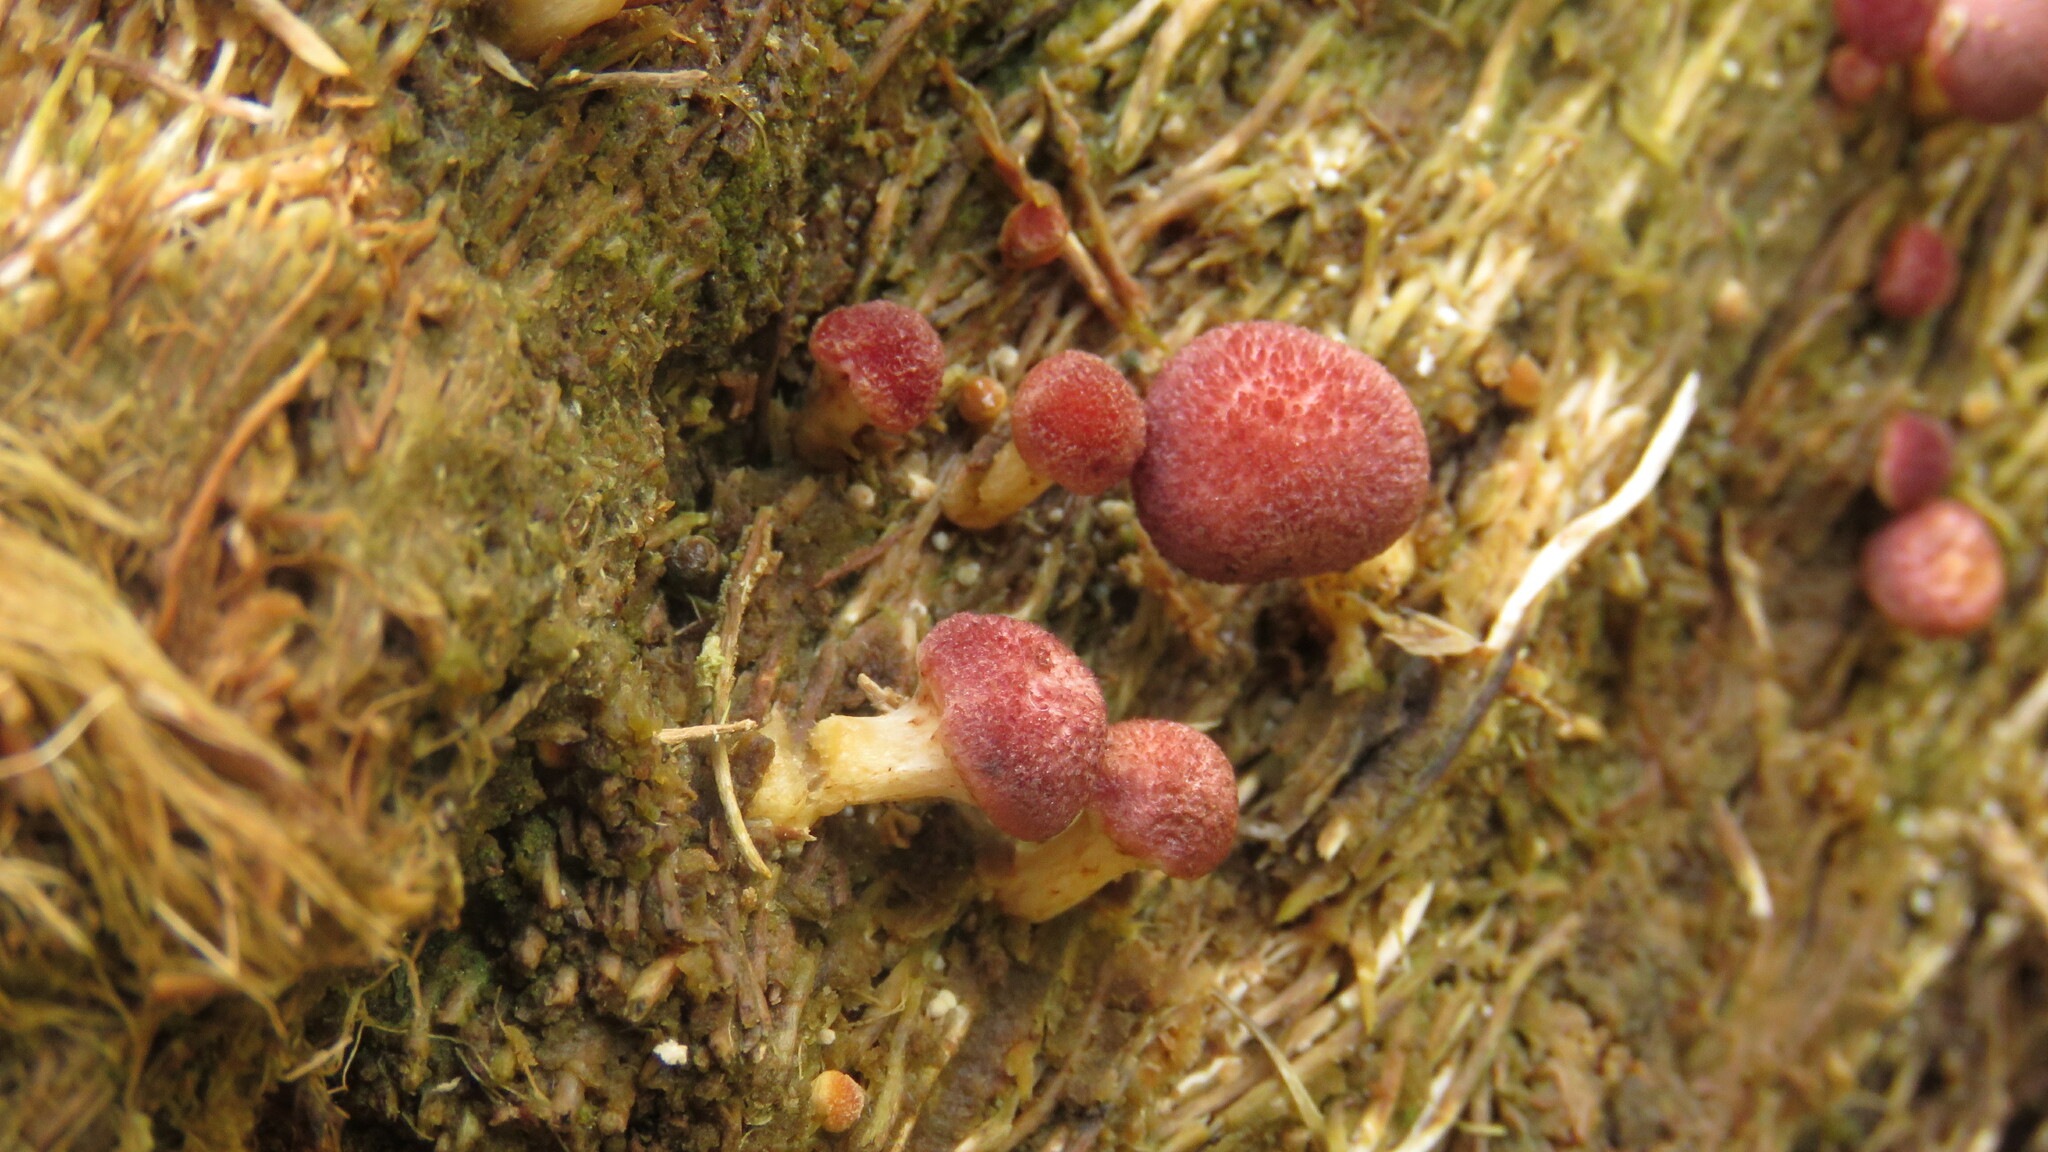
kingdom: Fungi
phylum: Basidiomycota
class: Agaricomycetes
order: Agaricales
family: Hymenogastraceae
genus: Gymnopilus
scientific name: Gymnopilus purpuratus
